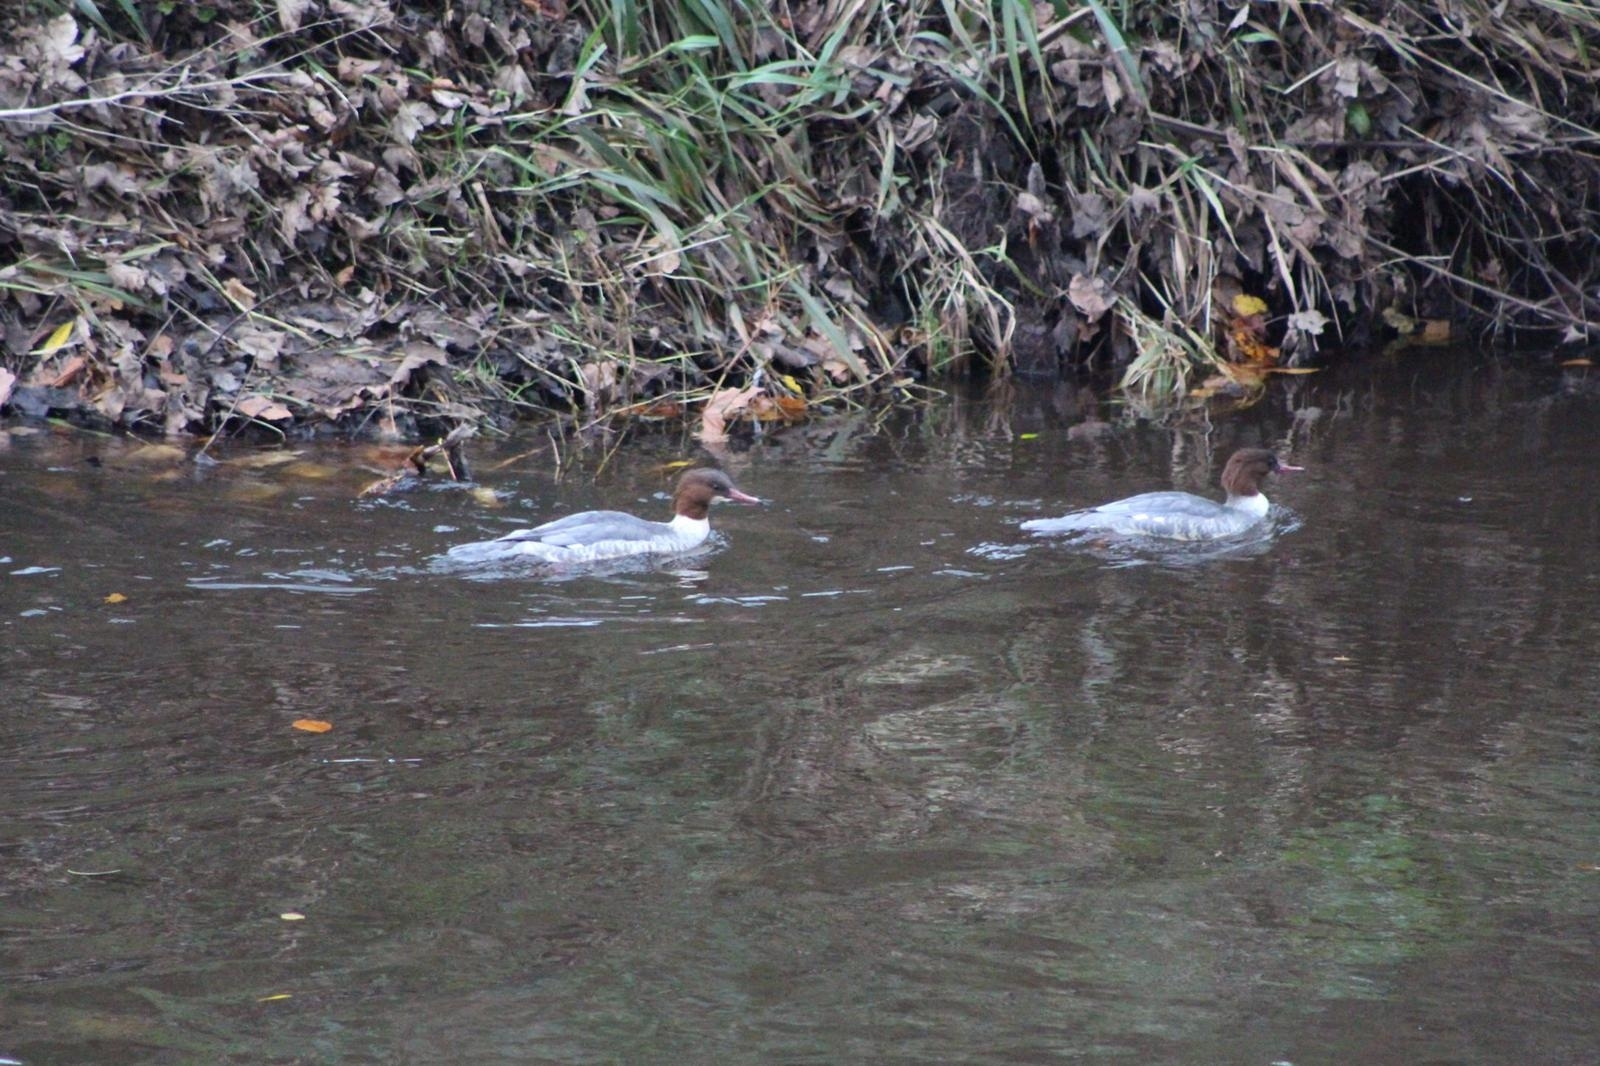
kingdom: Animalia
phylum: Chordata
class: Aves
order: Anseriformes
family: Anatidae
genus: Mergus
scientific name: Mergus merganser
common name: Common merganser
